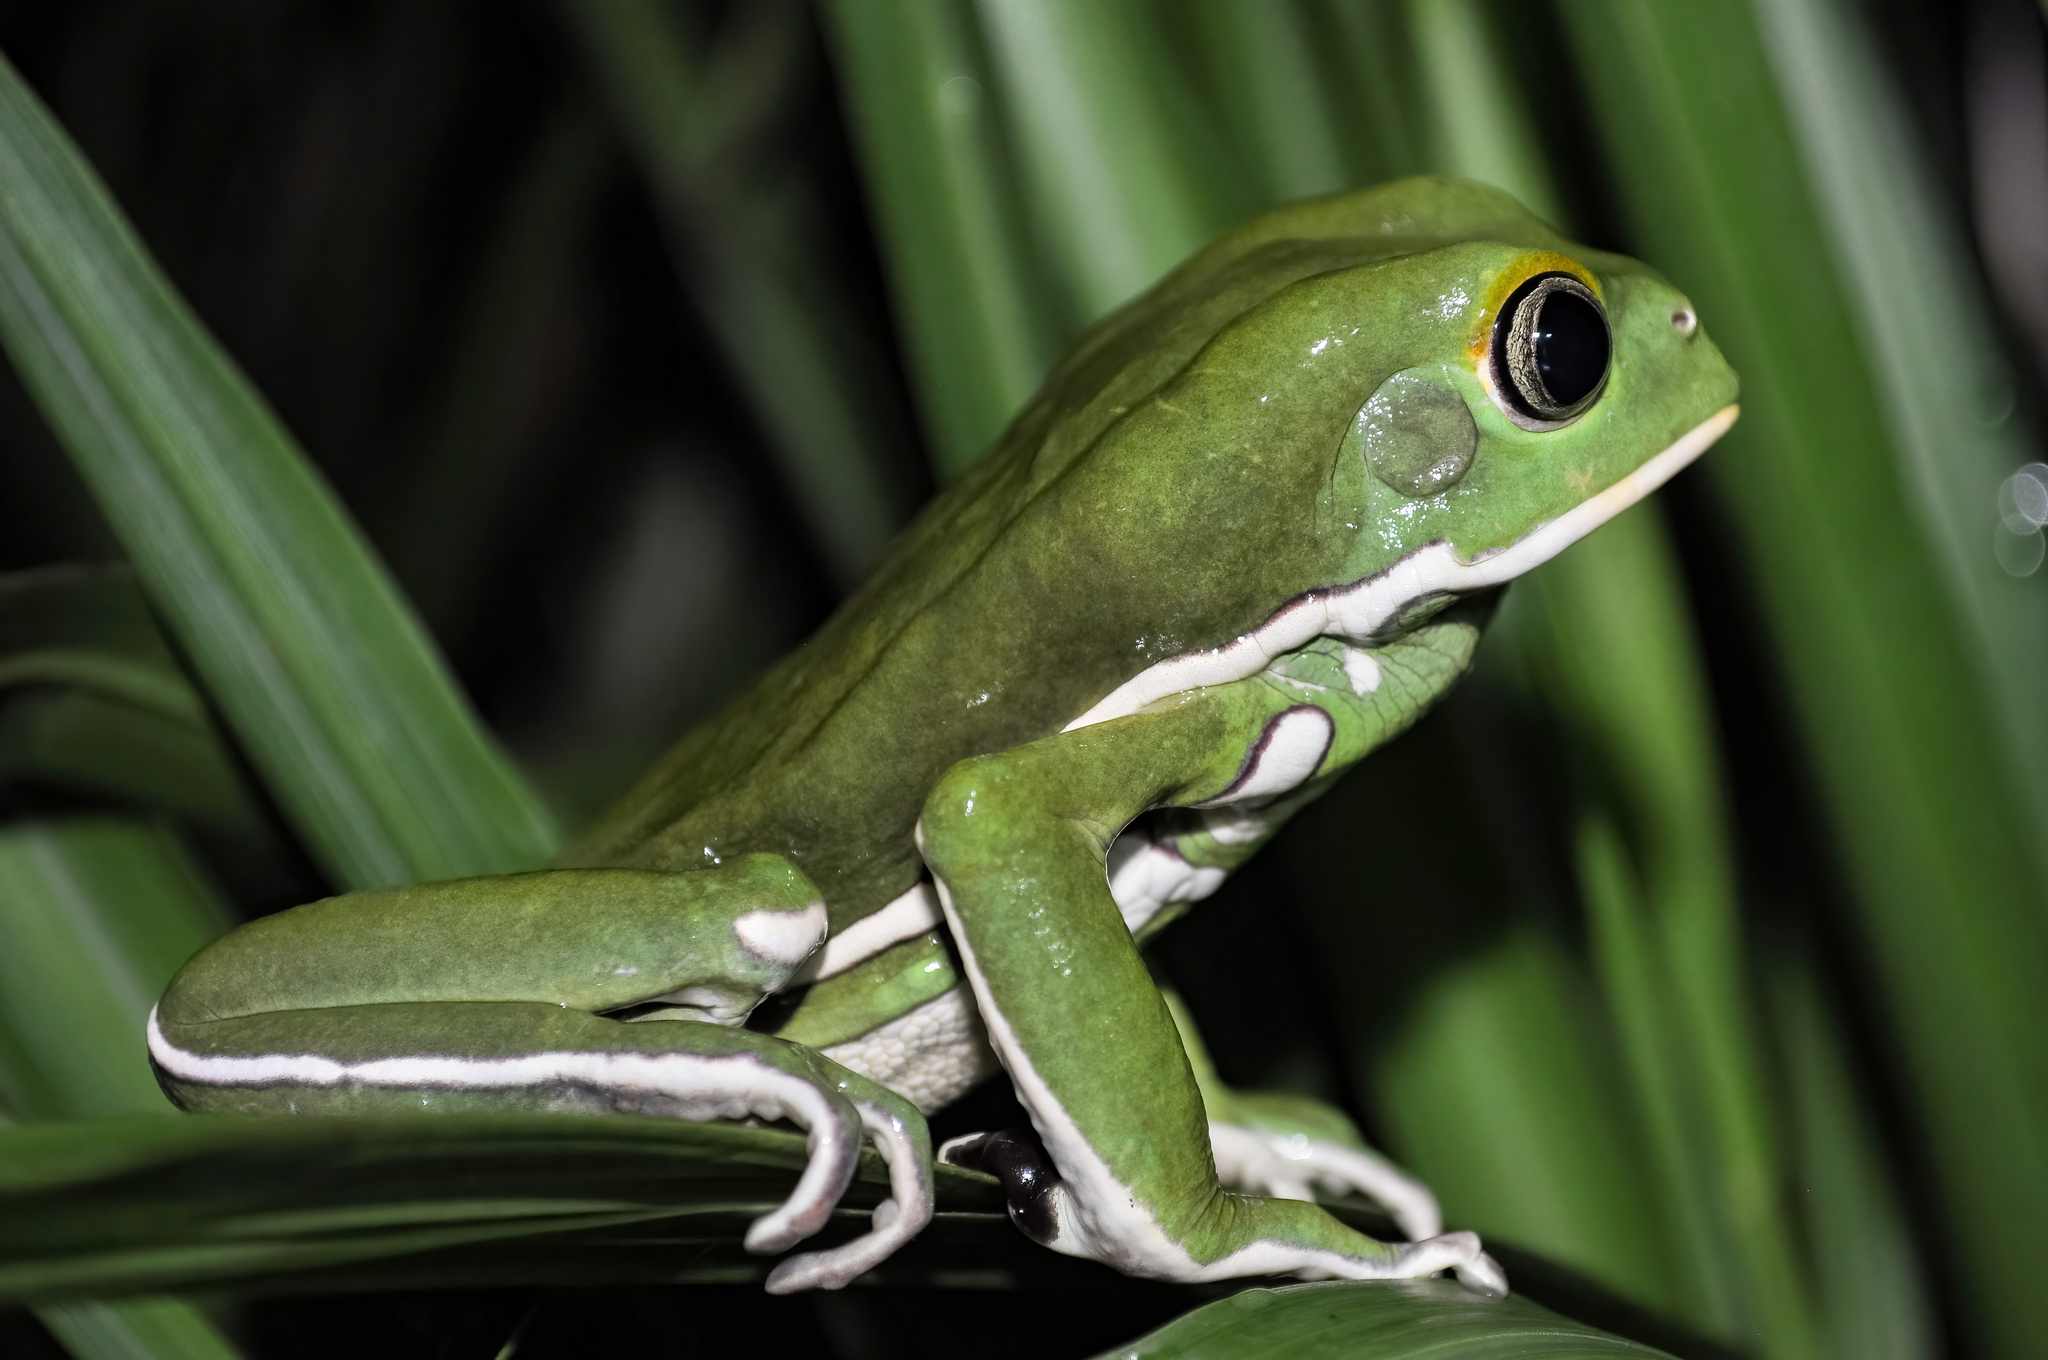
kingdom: Animalia
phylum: Chordata
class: Amphibia
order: Anura
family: Phyllomedusidae
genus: Phyllomedusa
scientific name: Phyllomedusa sauvagii
